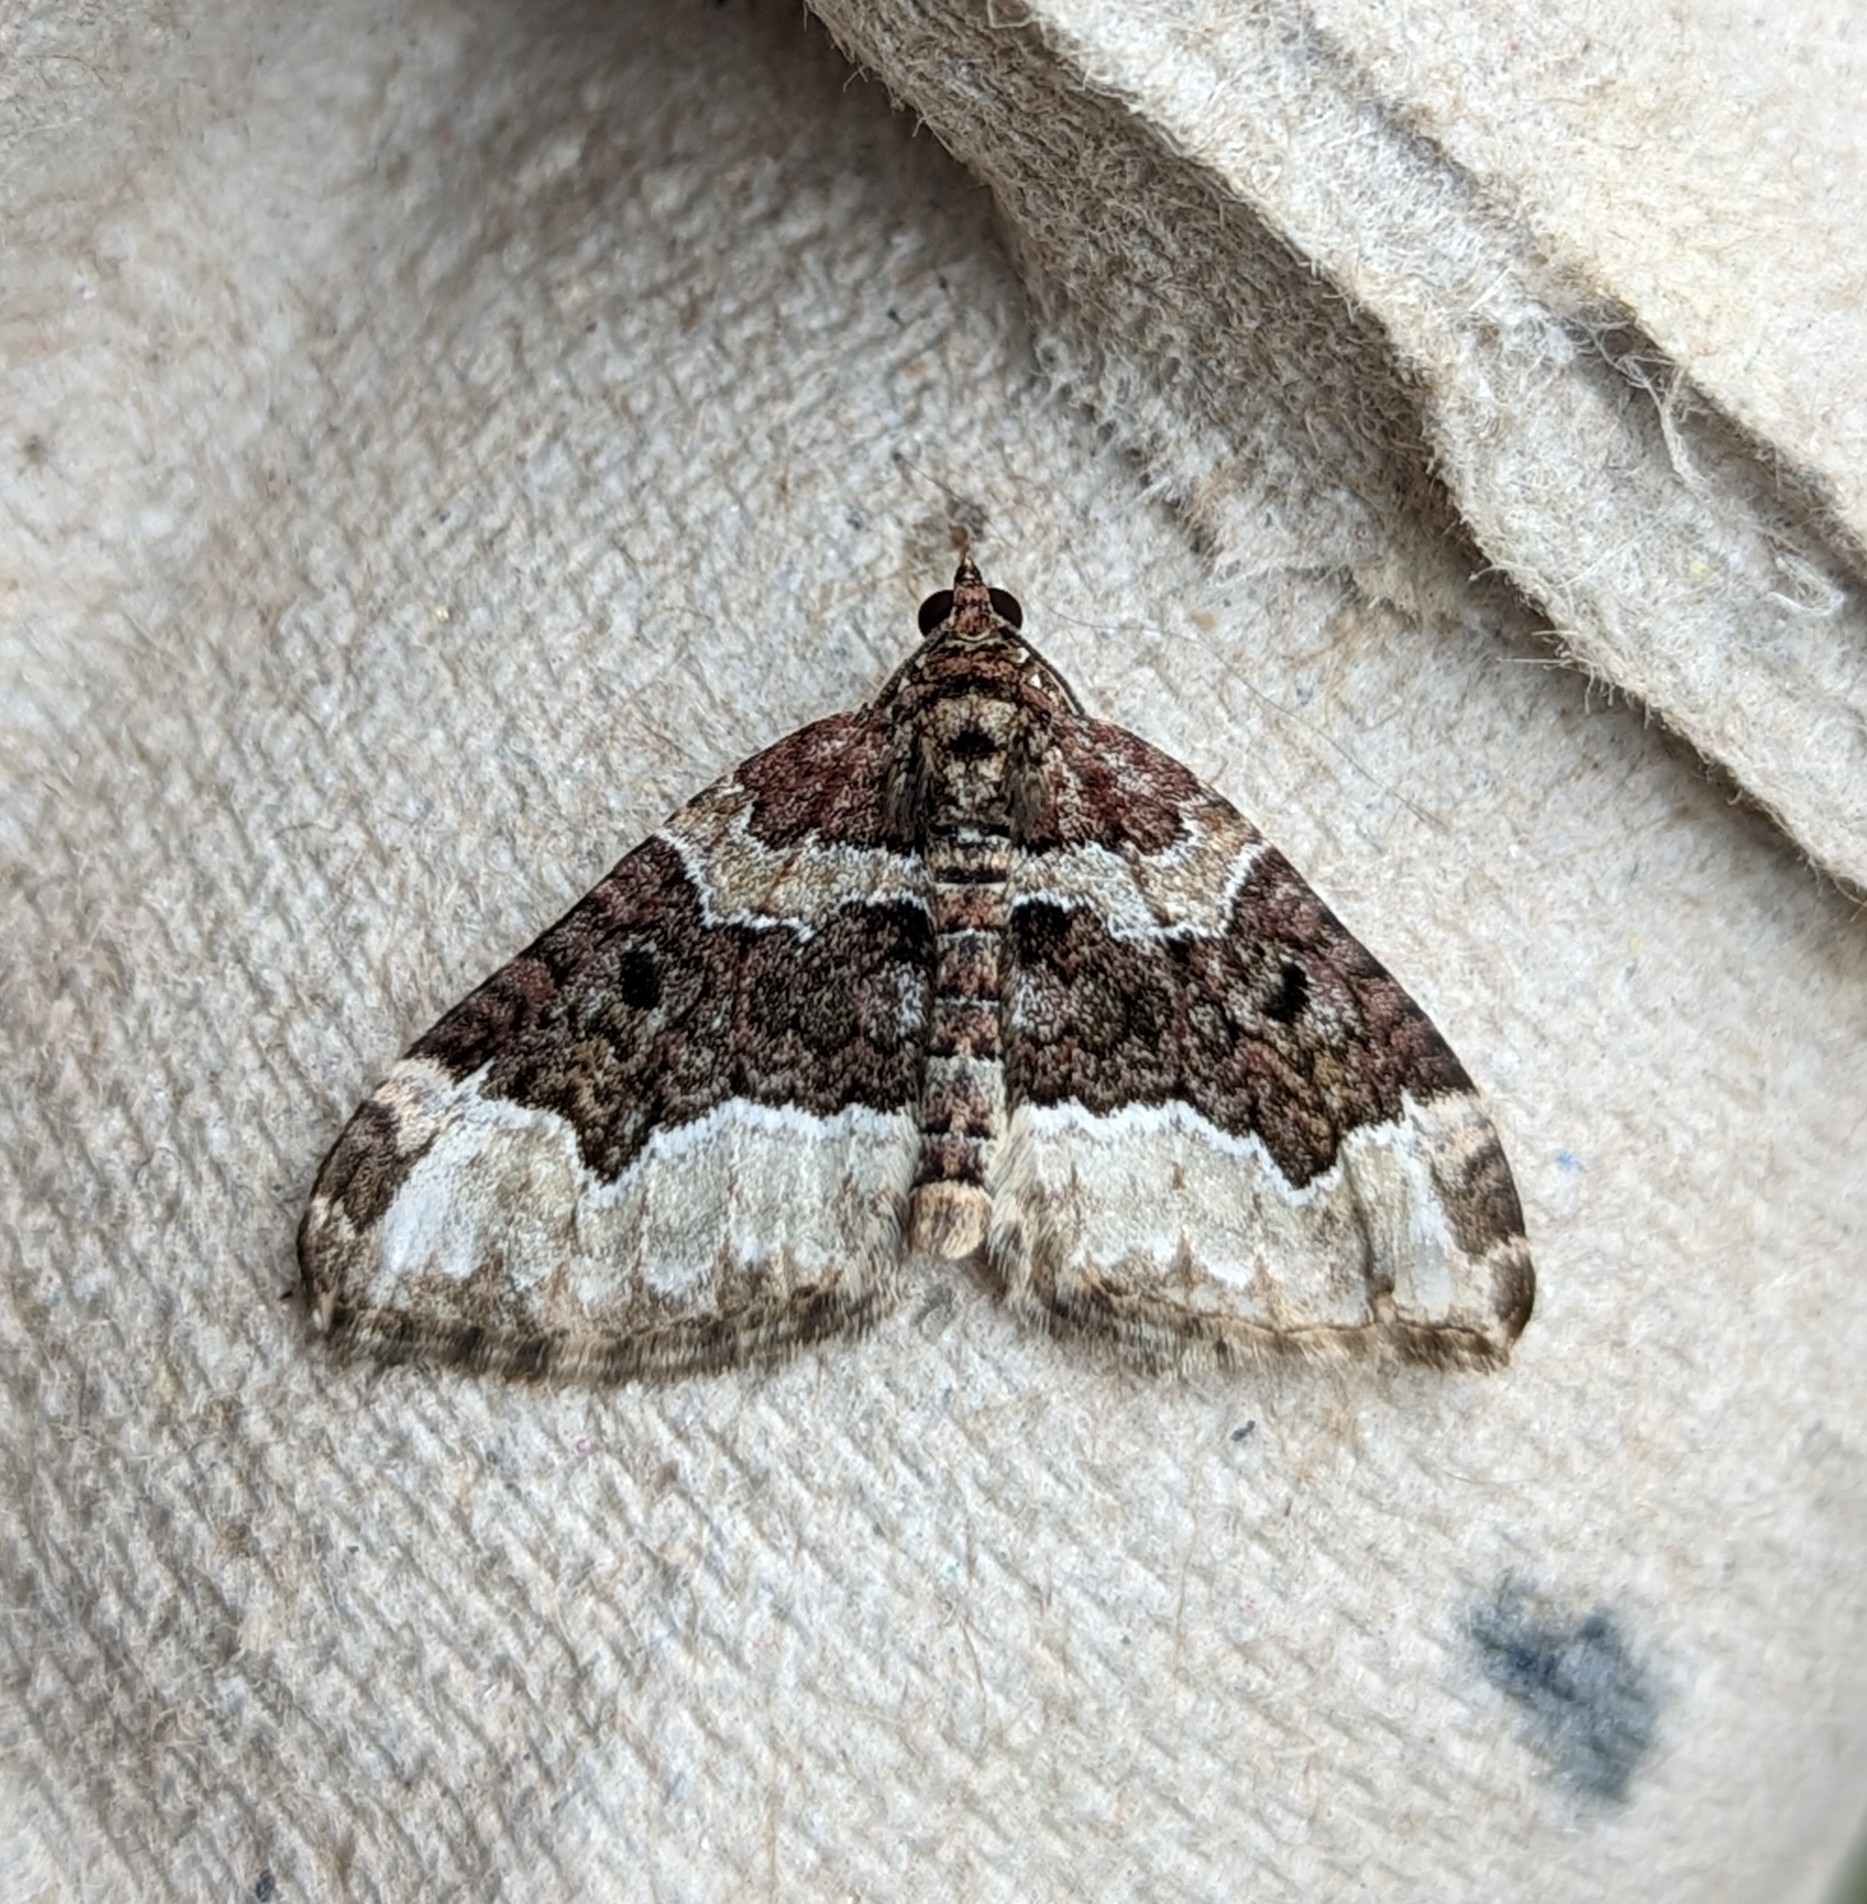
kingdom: Animalia
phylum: Arthropoda
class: Insecta
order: Lepidoptera
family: Geometridae
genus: Euphyia
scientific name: Euphyia intermediata
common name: Sharp-angled carpet
